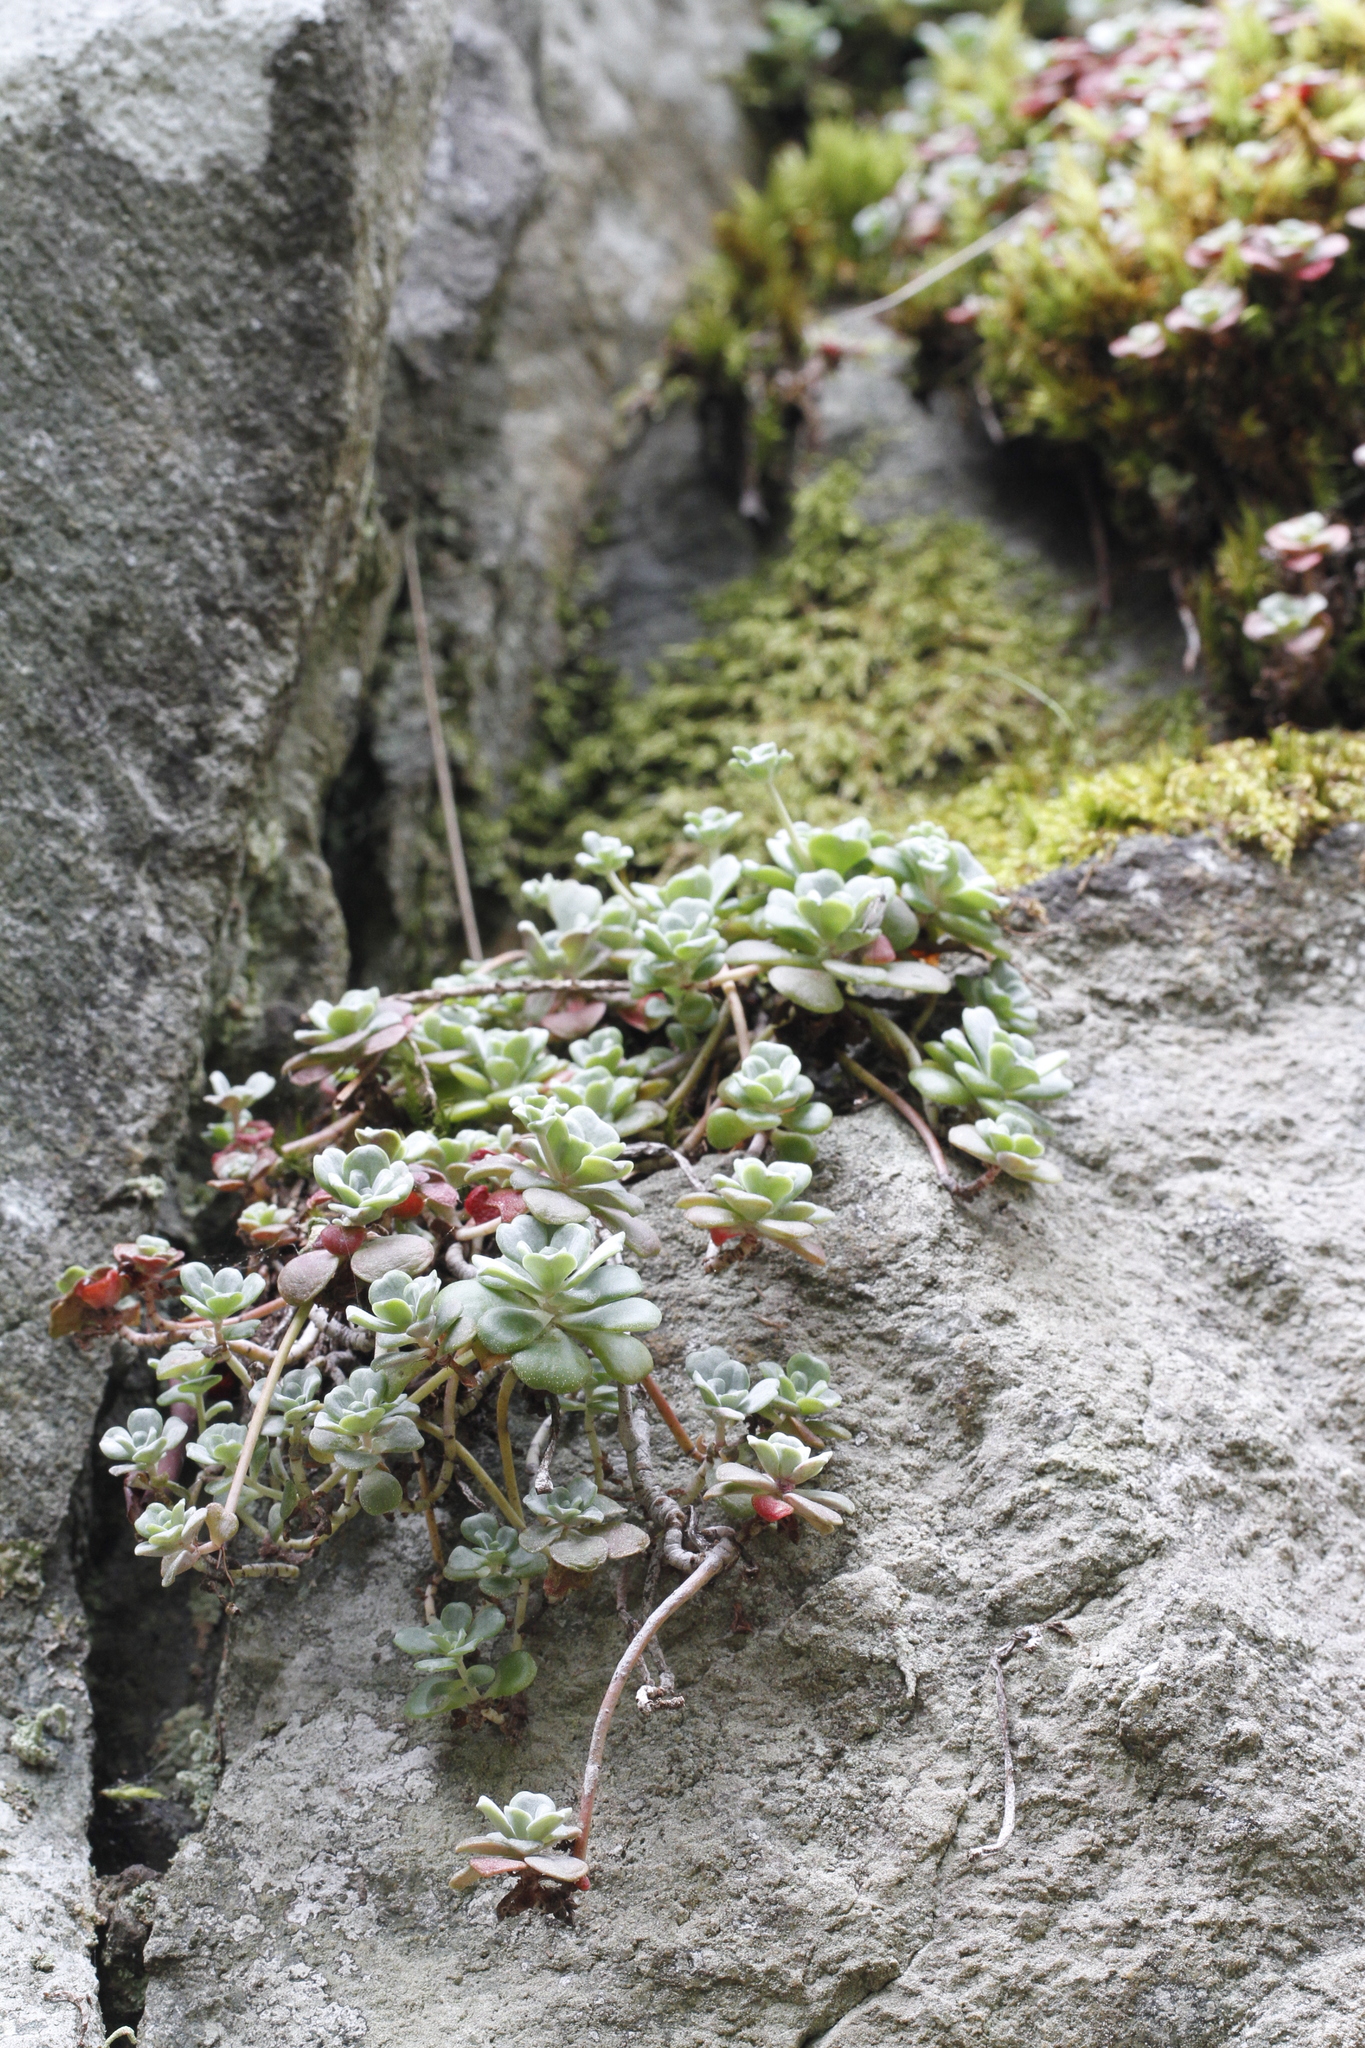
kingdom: Plantae
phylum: Tracheophyta
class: Magnoliopsida
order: Saxifragales
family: Crassulaceae
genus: Sedum
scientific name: Sedum spathulifolium
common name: Colorado stonecrop
